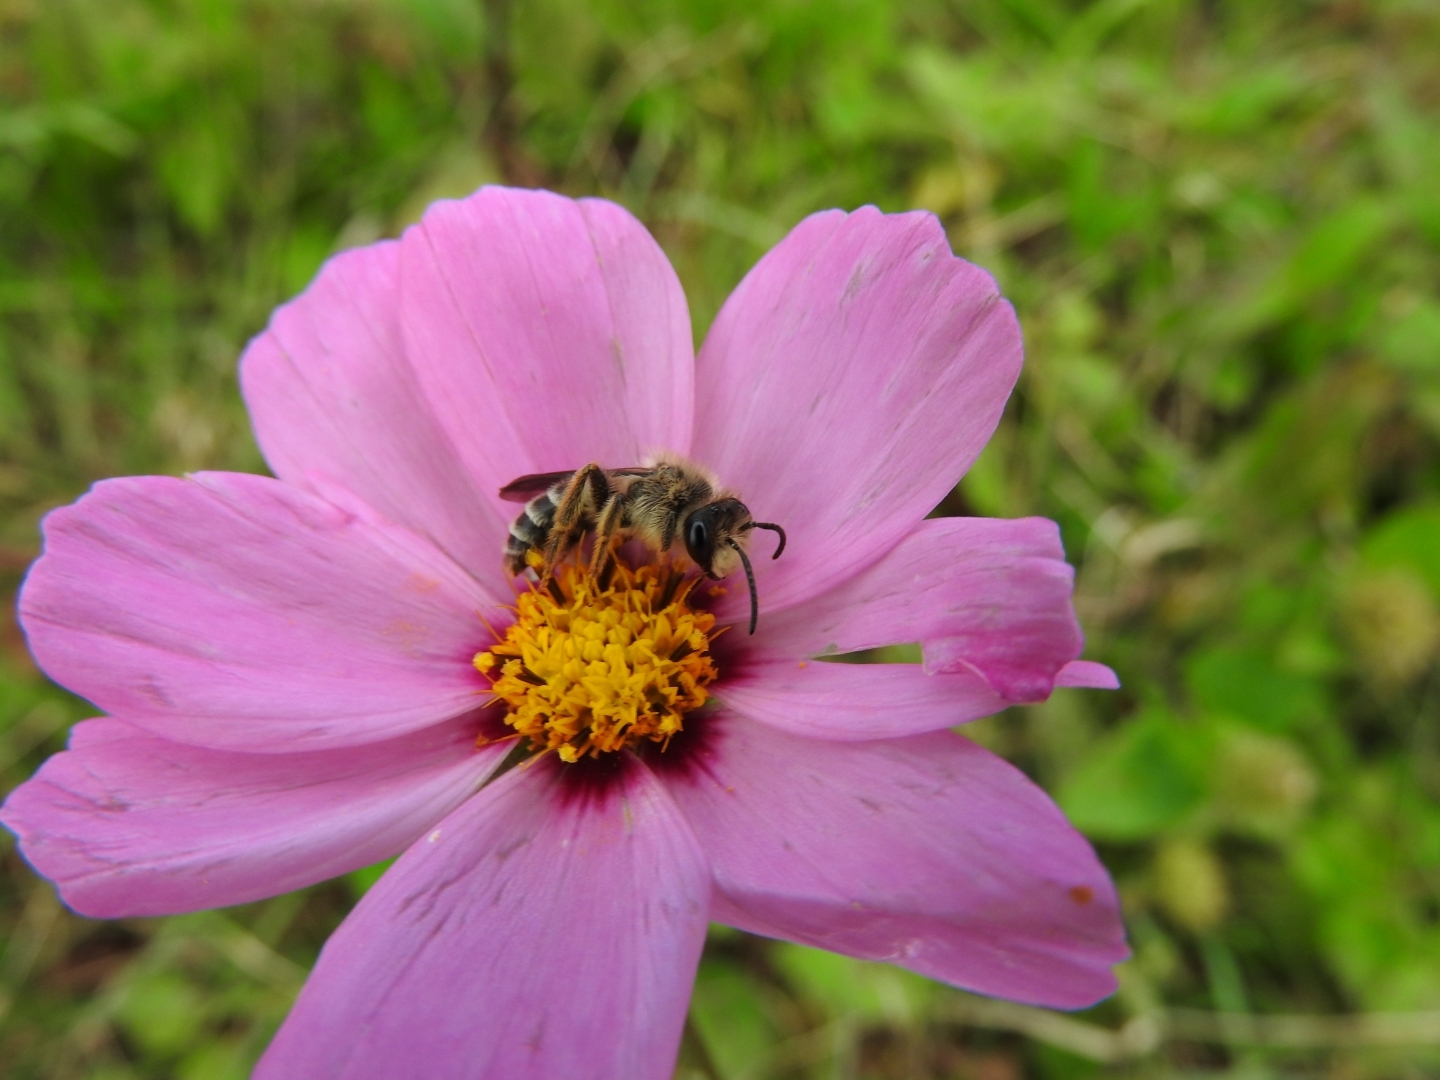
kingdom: Plantae
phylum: Tracheophyta
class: Magnoliopsida
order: Asterales
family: Asteraceae
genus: Cosmos
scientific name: Cosmos bipinnatus
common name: Garden cosmos
